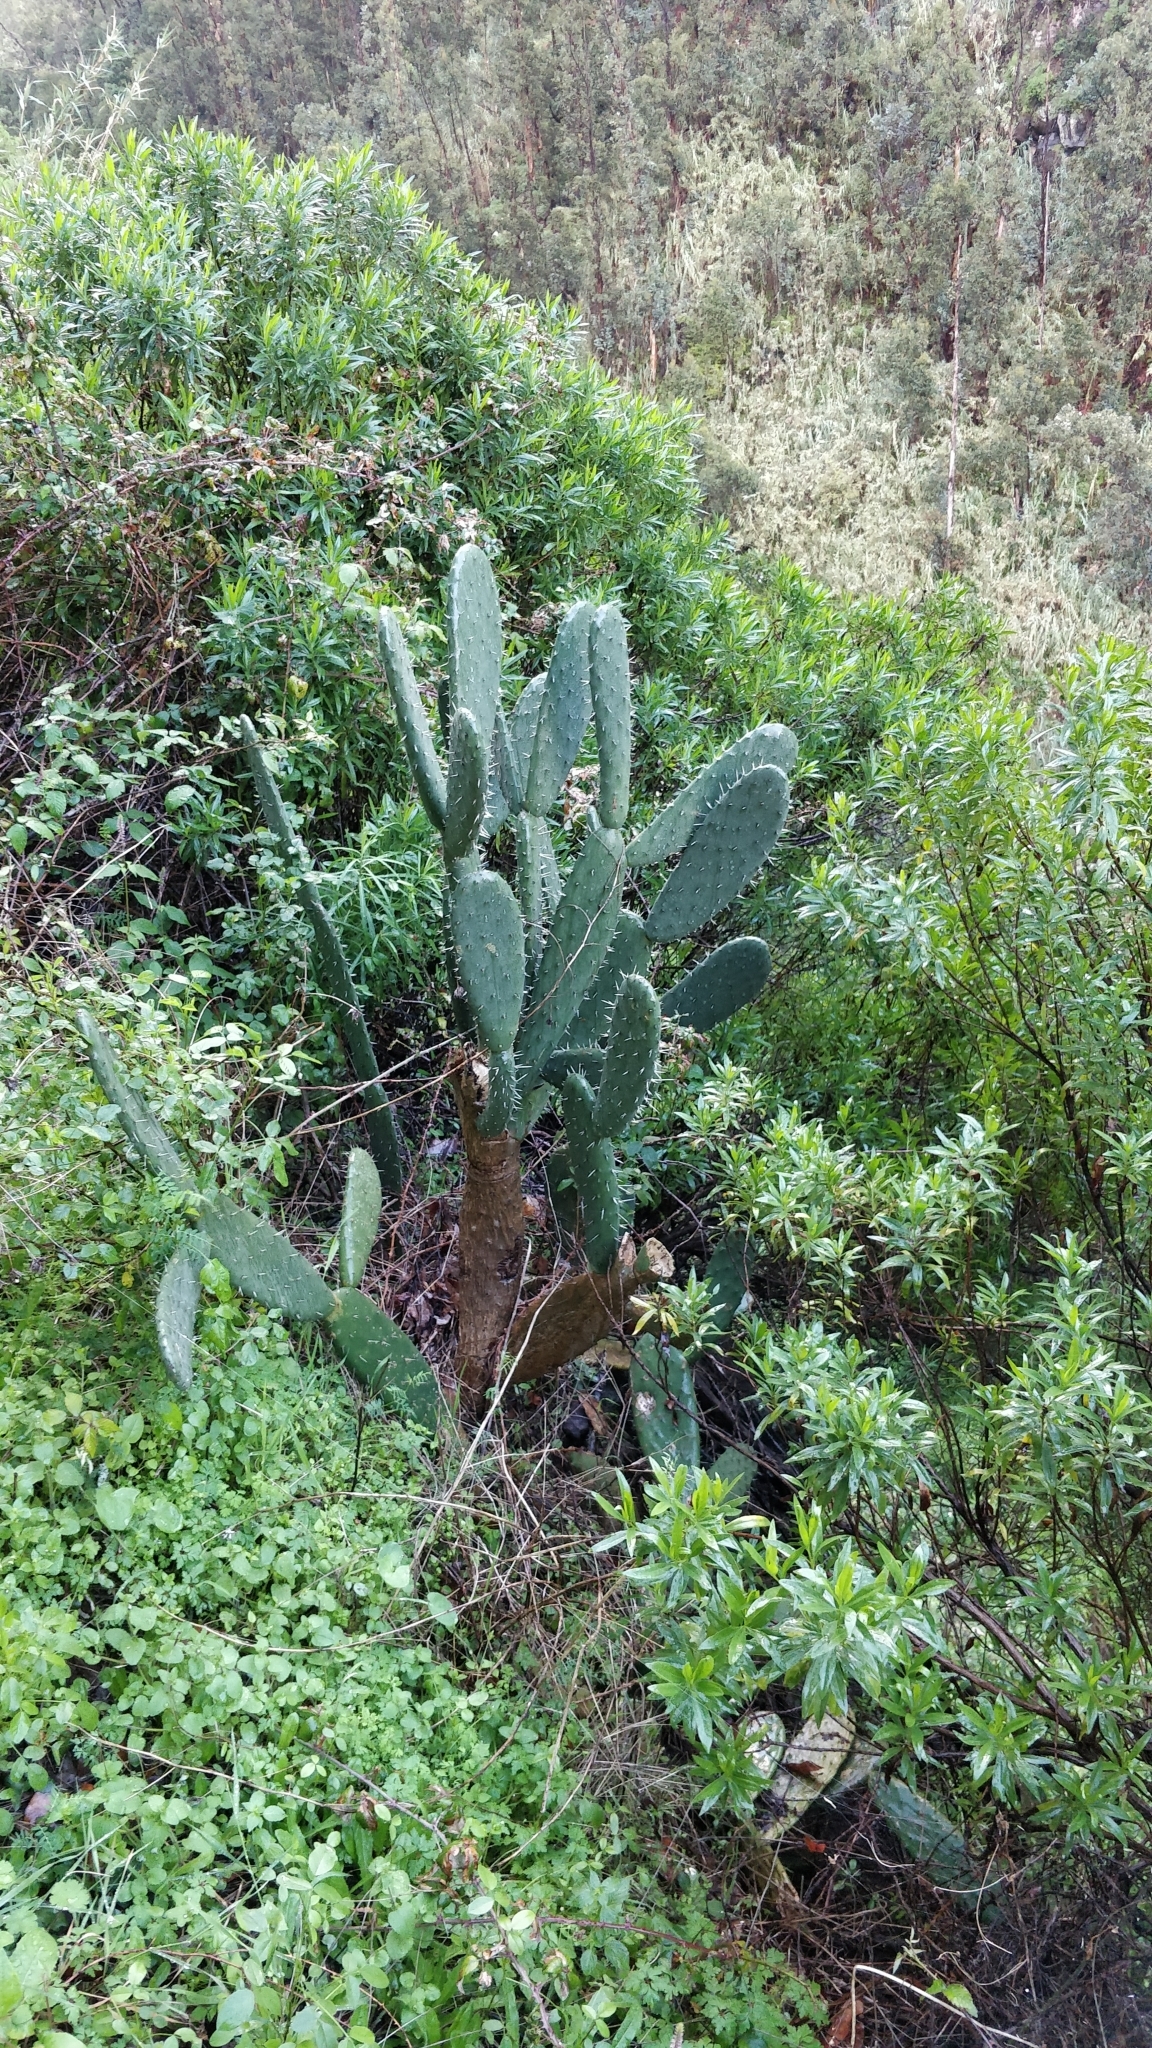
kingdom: Plantae
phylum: Tracheophyta
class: Magnoliopsida
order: Caryophyllales
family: Cactaceae
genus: Opuntia
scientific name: Opuntia ficus-indica
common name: Barbary fig
